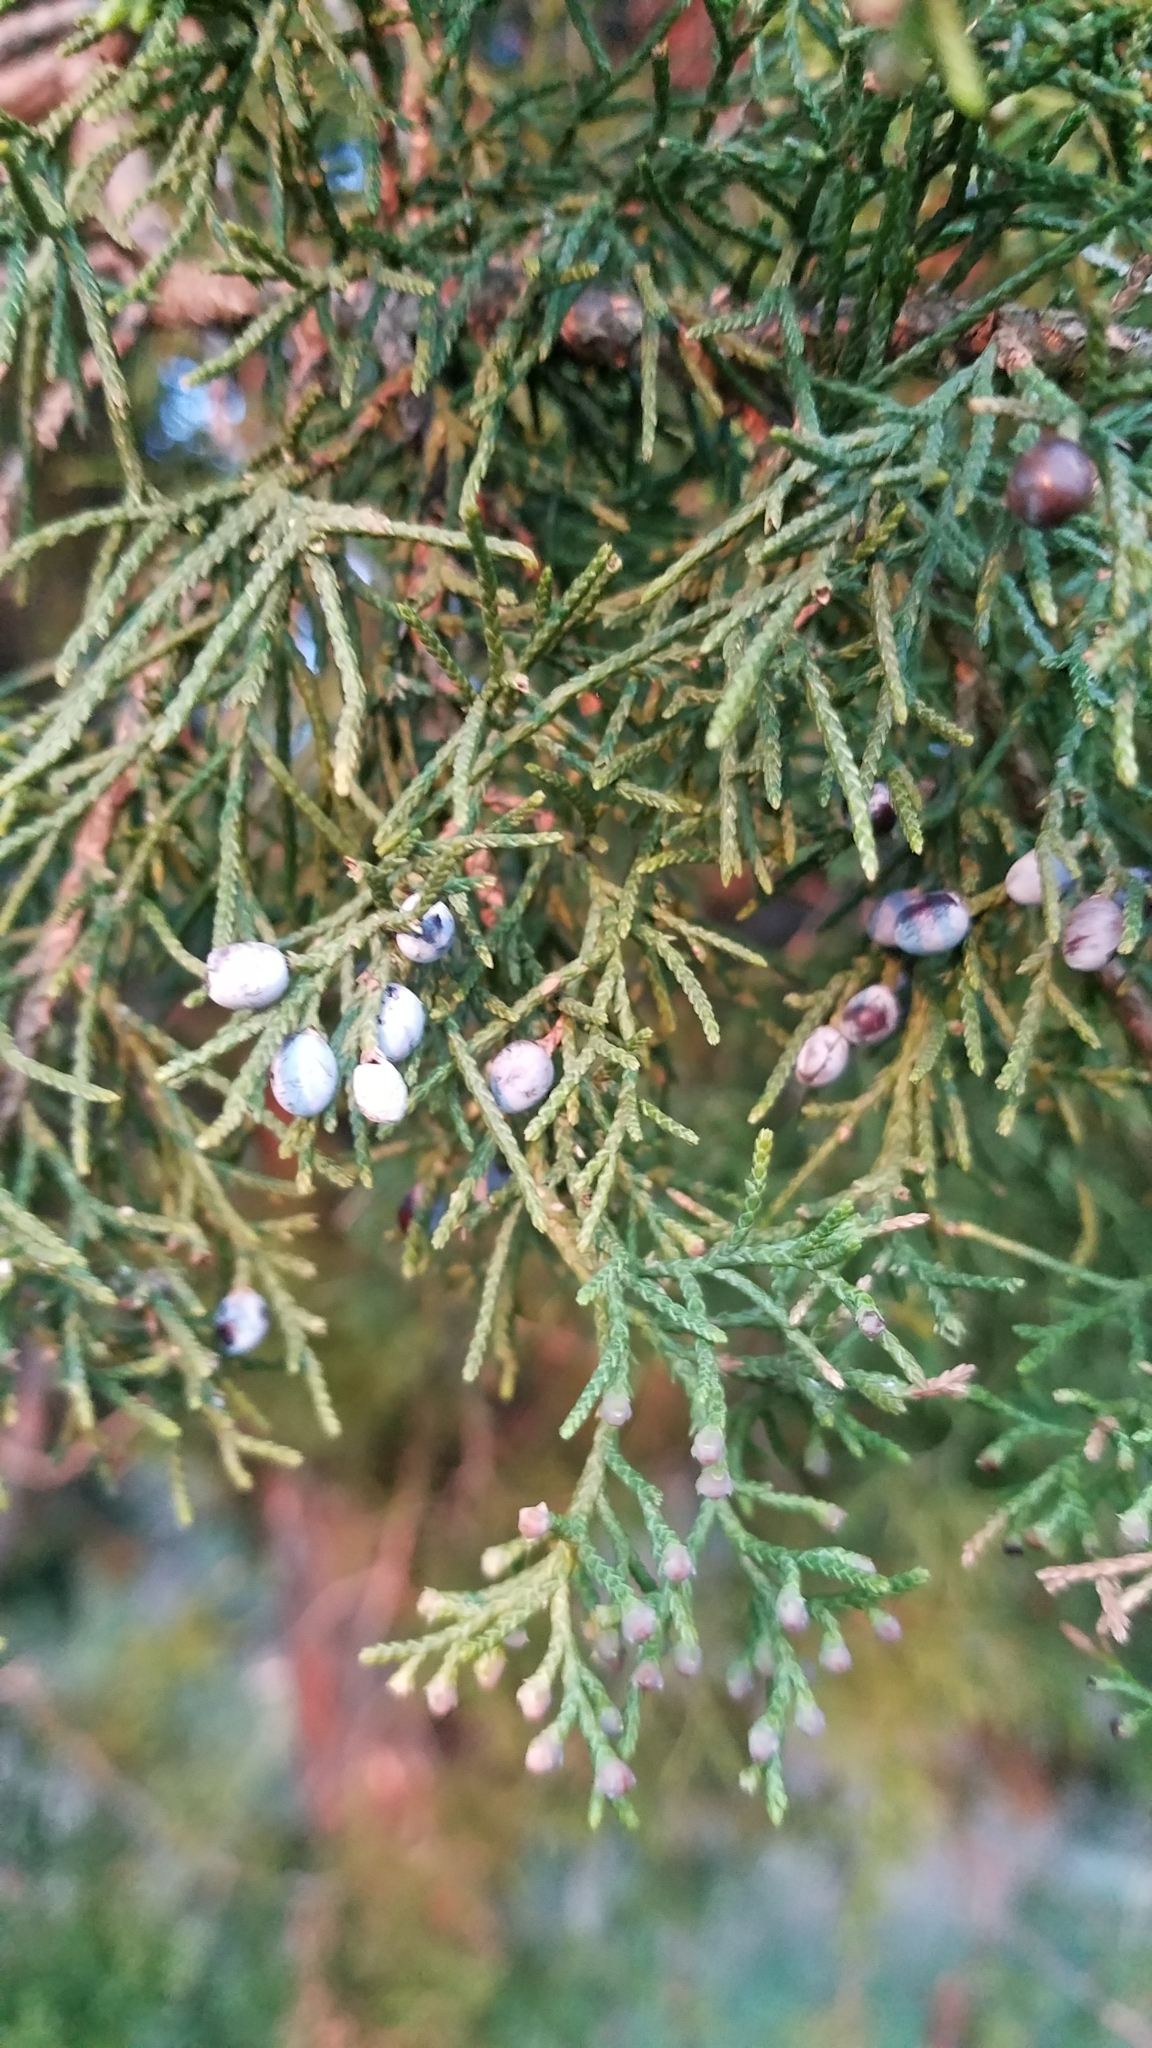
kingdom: Plantae
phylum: Tracheophyta
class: Pinopsida
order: Pinales
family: Cupressaceae
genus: Juniperus
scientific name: Juniperus virginiana
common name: Red juniper
